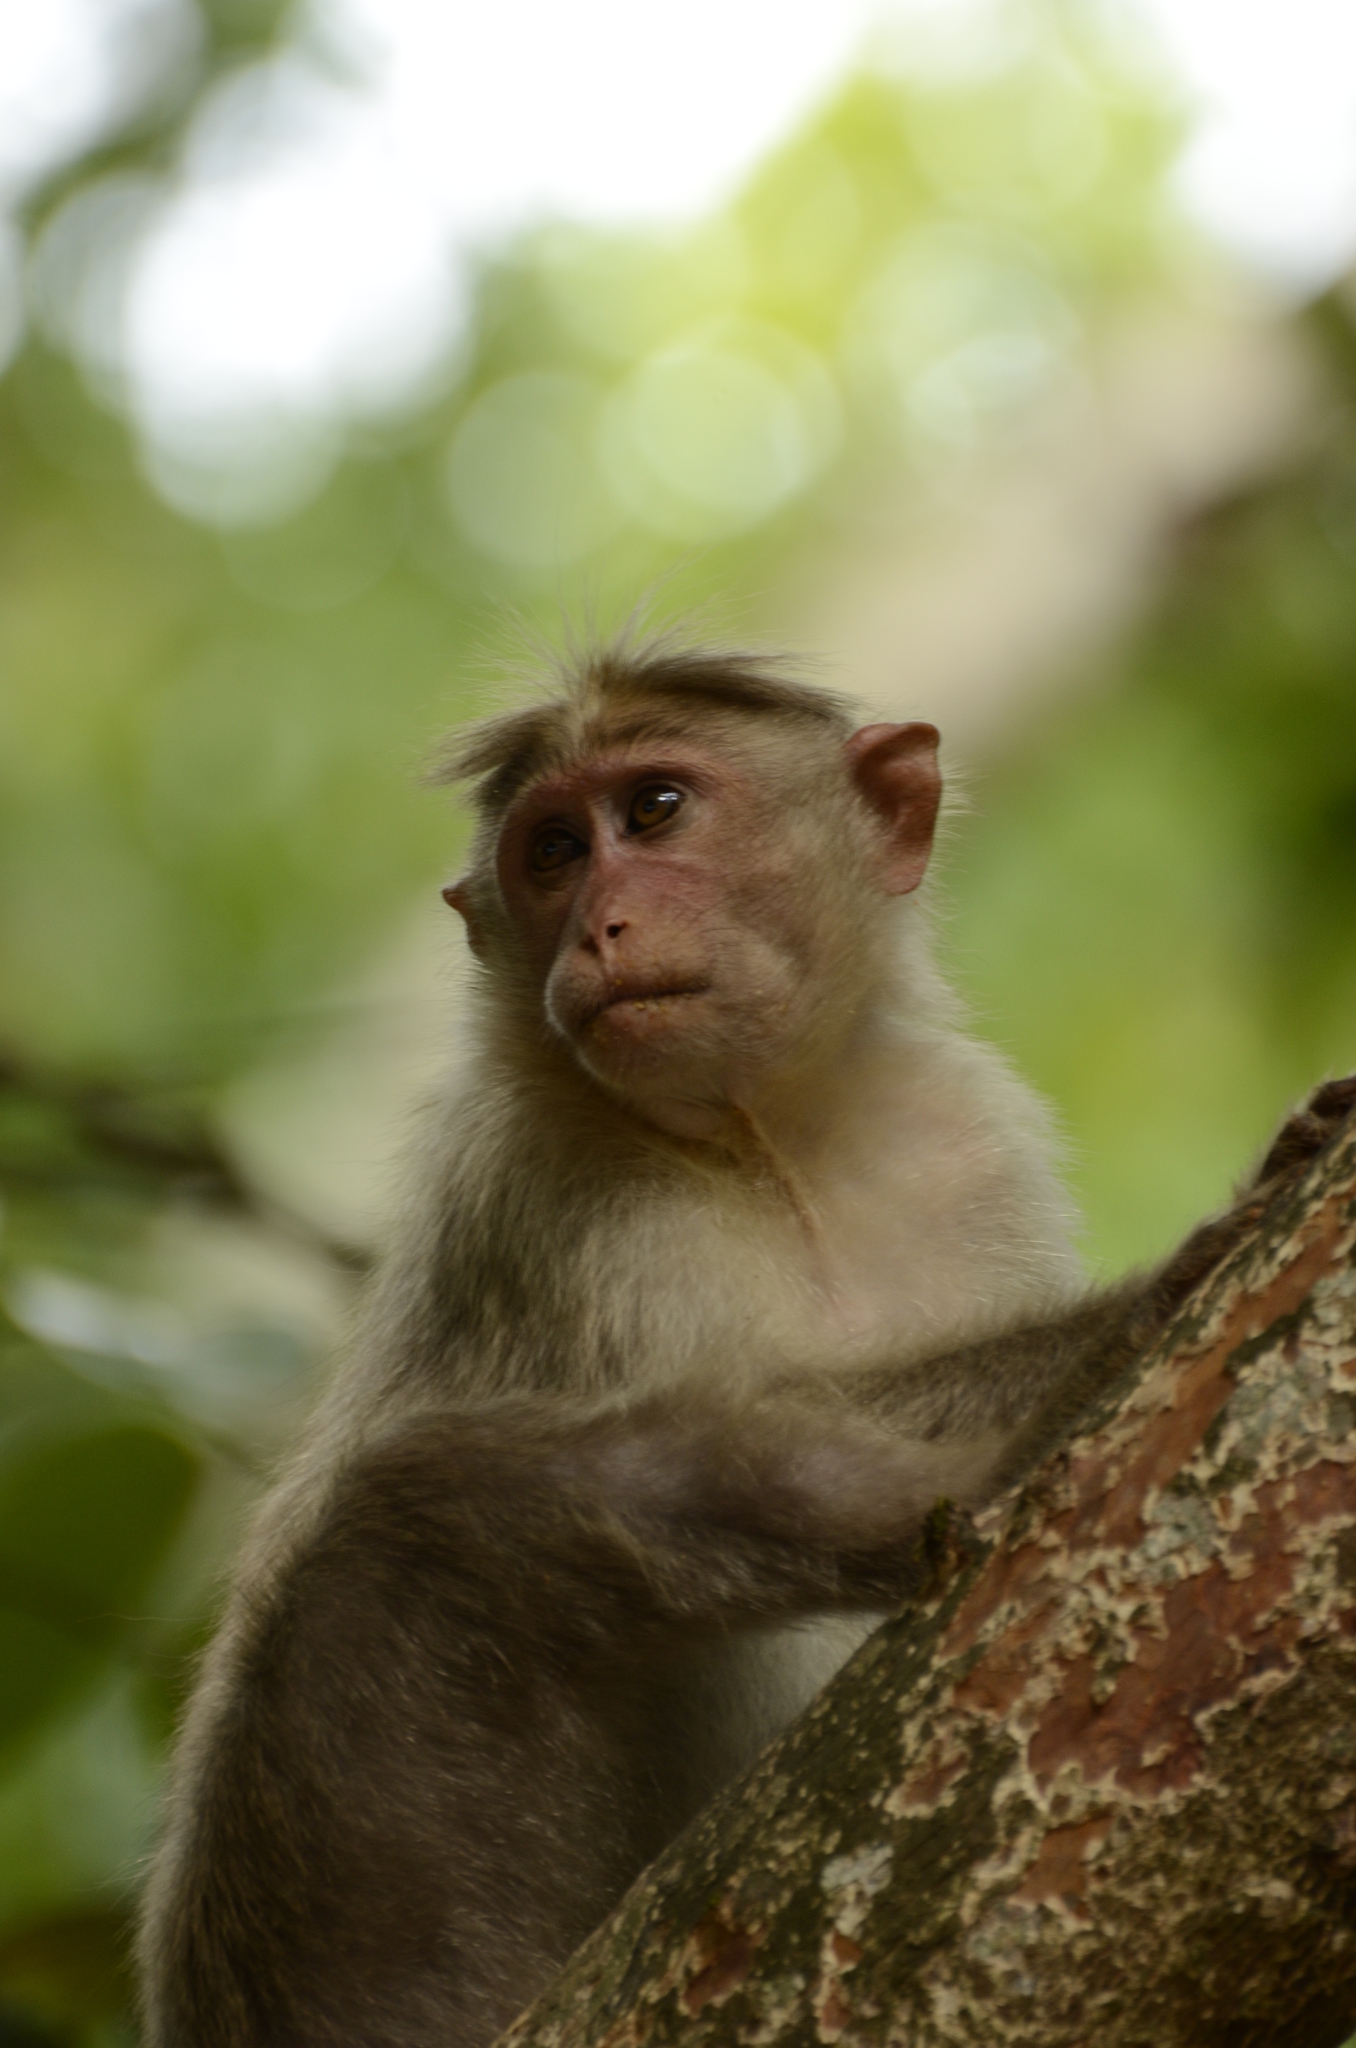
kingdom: Animalia
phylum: Chordata
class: Mammalia
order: Primates
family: Cercopithecidae
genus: Macaca
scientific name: Macaca radiata
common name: Bonnet macaque
